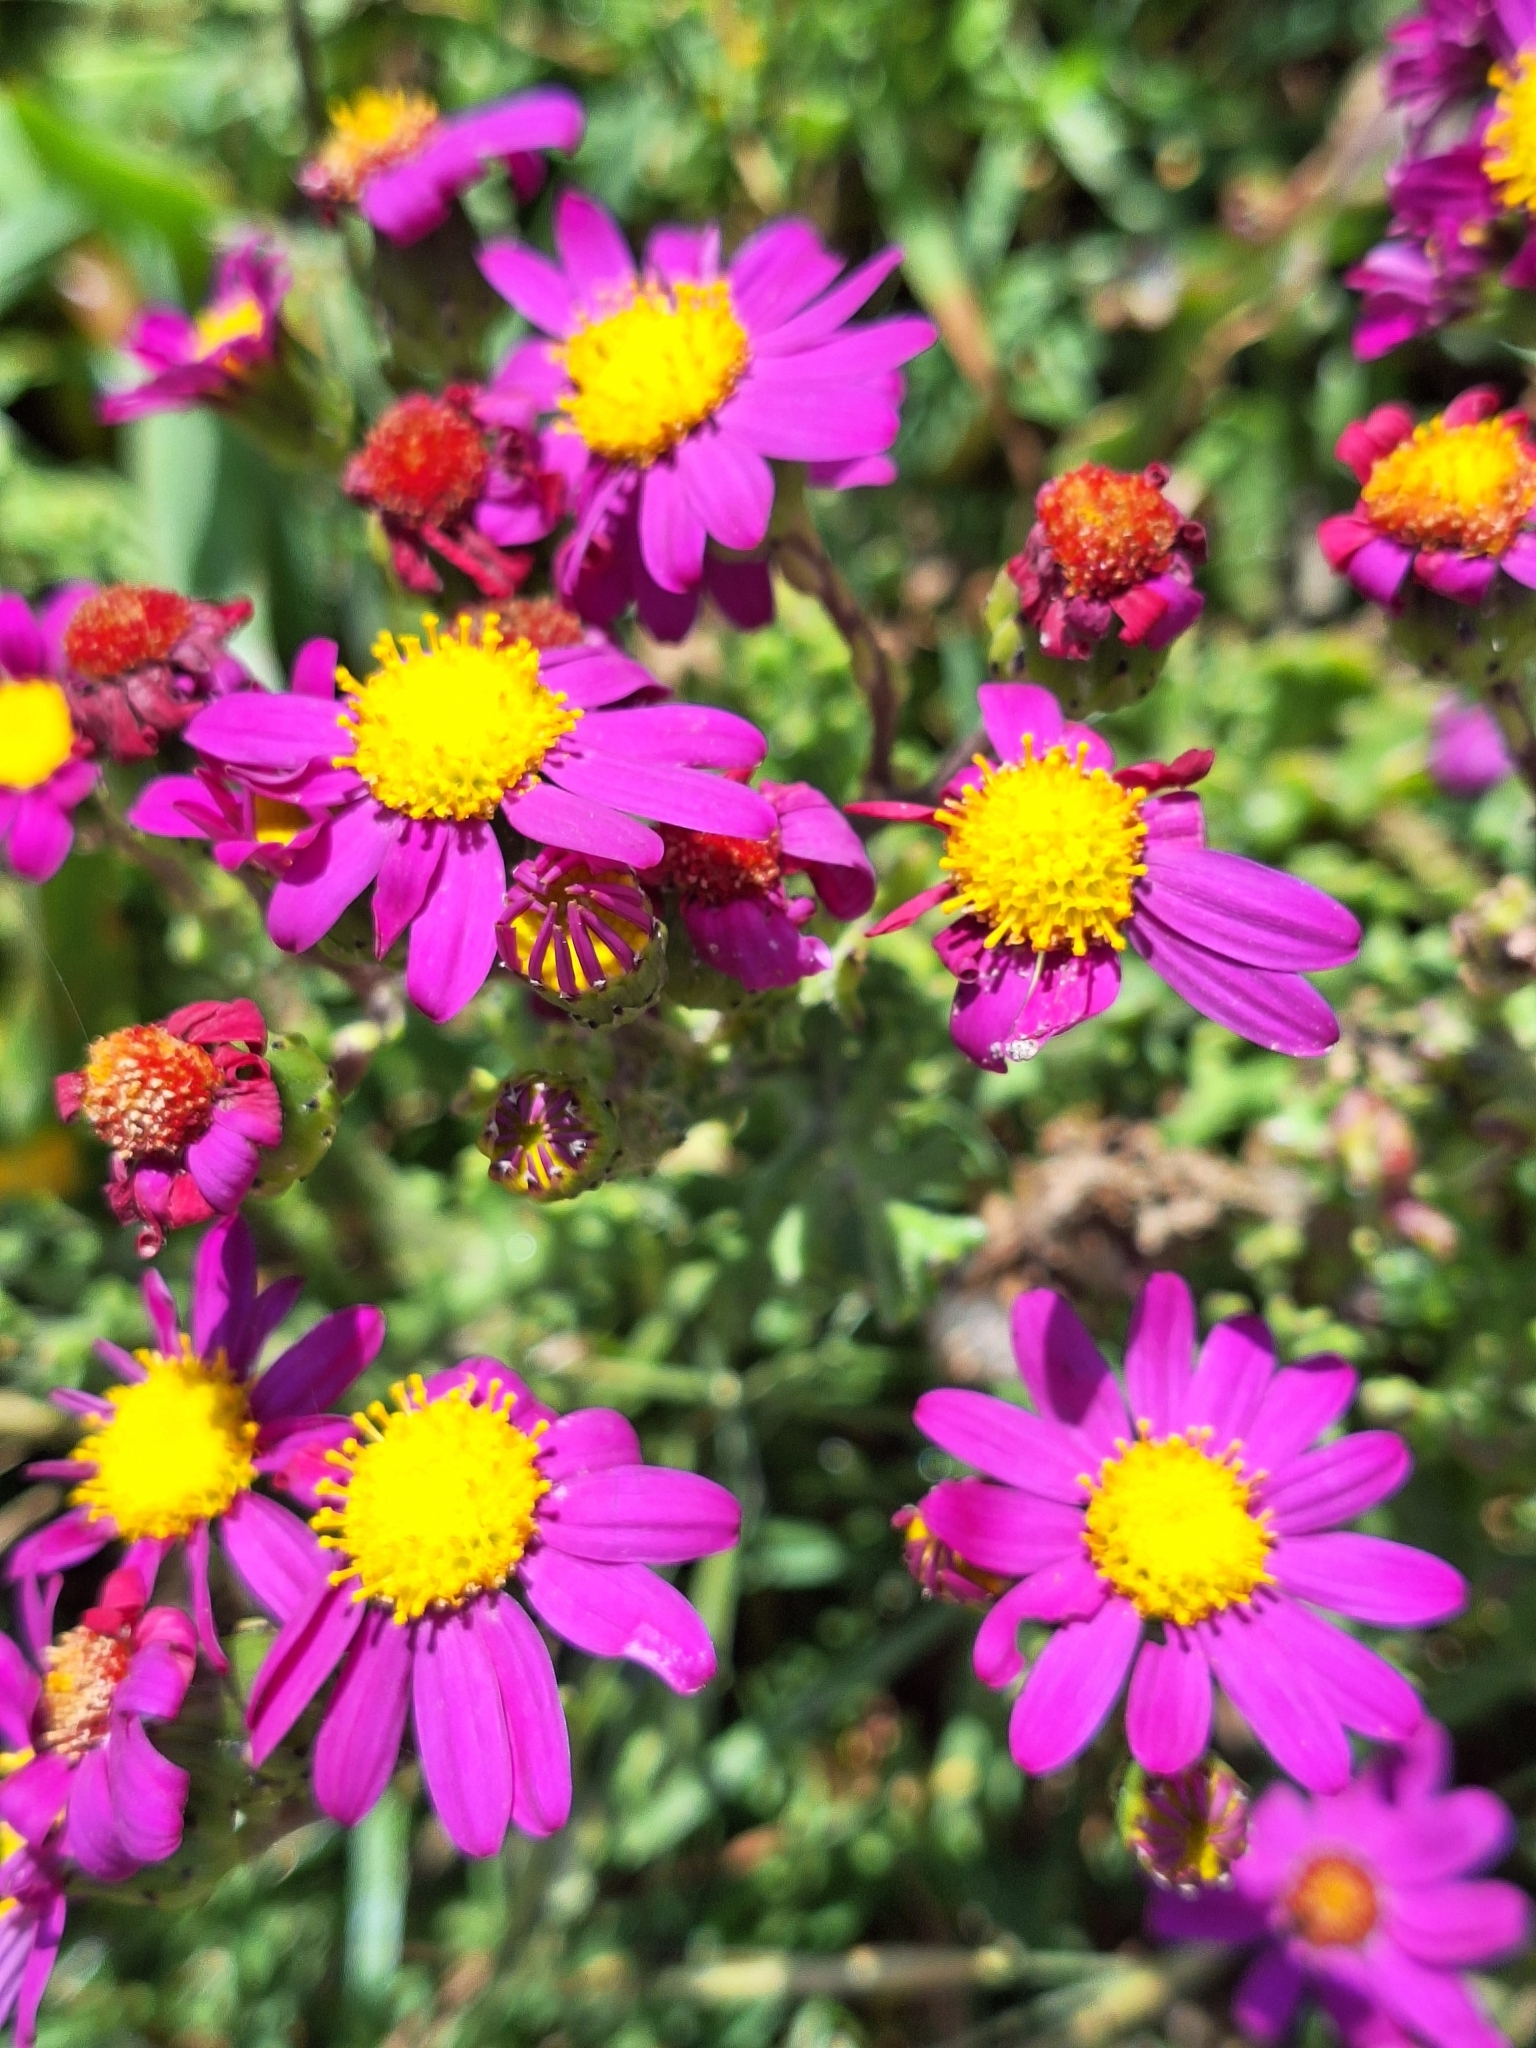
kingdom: Plantae
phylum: Tracheophyta
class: Magnoliopsida
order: Asterales
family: Asteraceae
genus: Senecio
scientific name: Senecio elegans
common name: Purple groundsel
